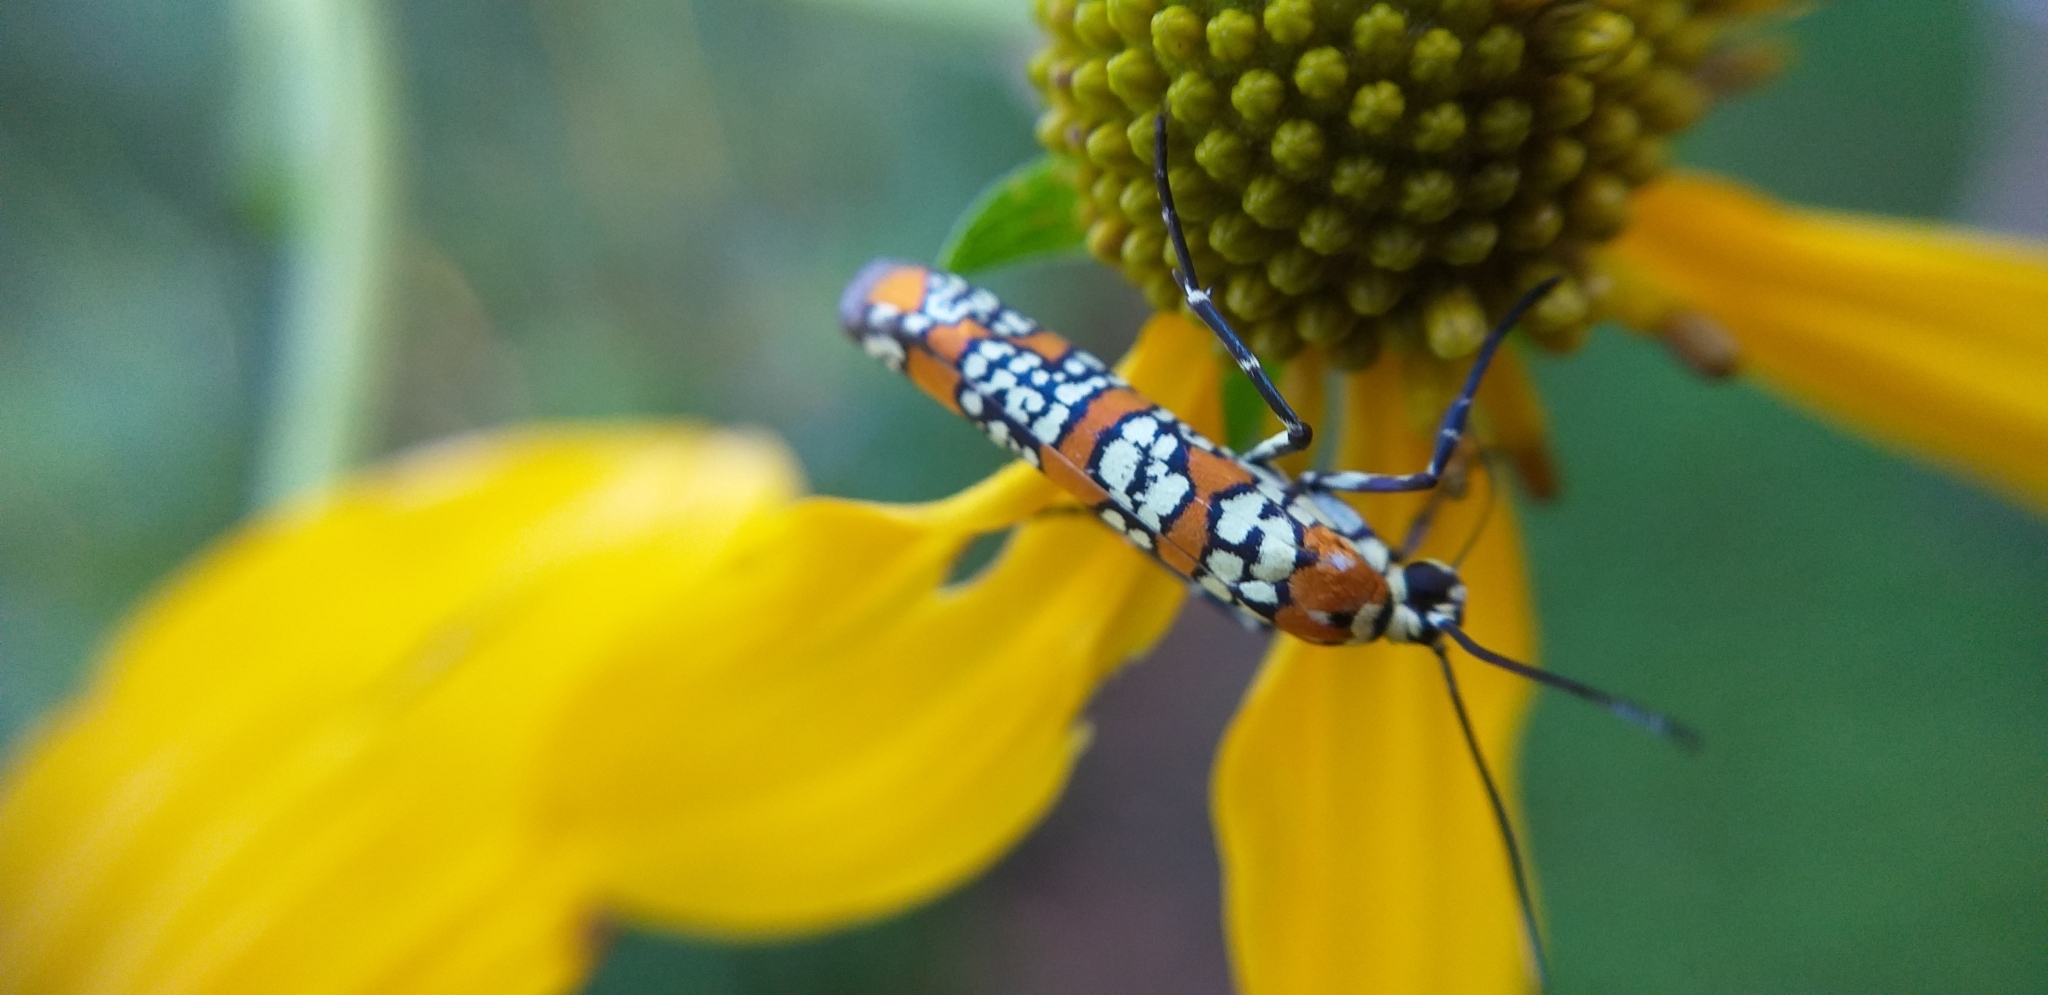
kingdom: Animalia
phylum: Arthropoda
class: Insecta
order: Lepidoptera
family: Attevidae
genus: Atteva
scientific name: Atteva punctella
